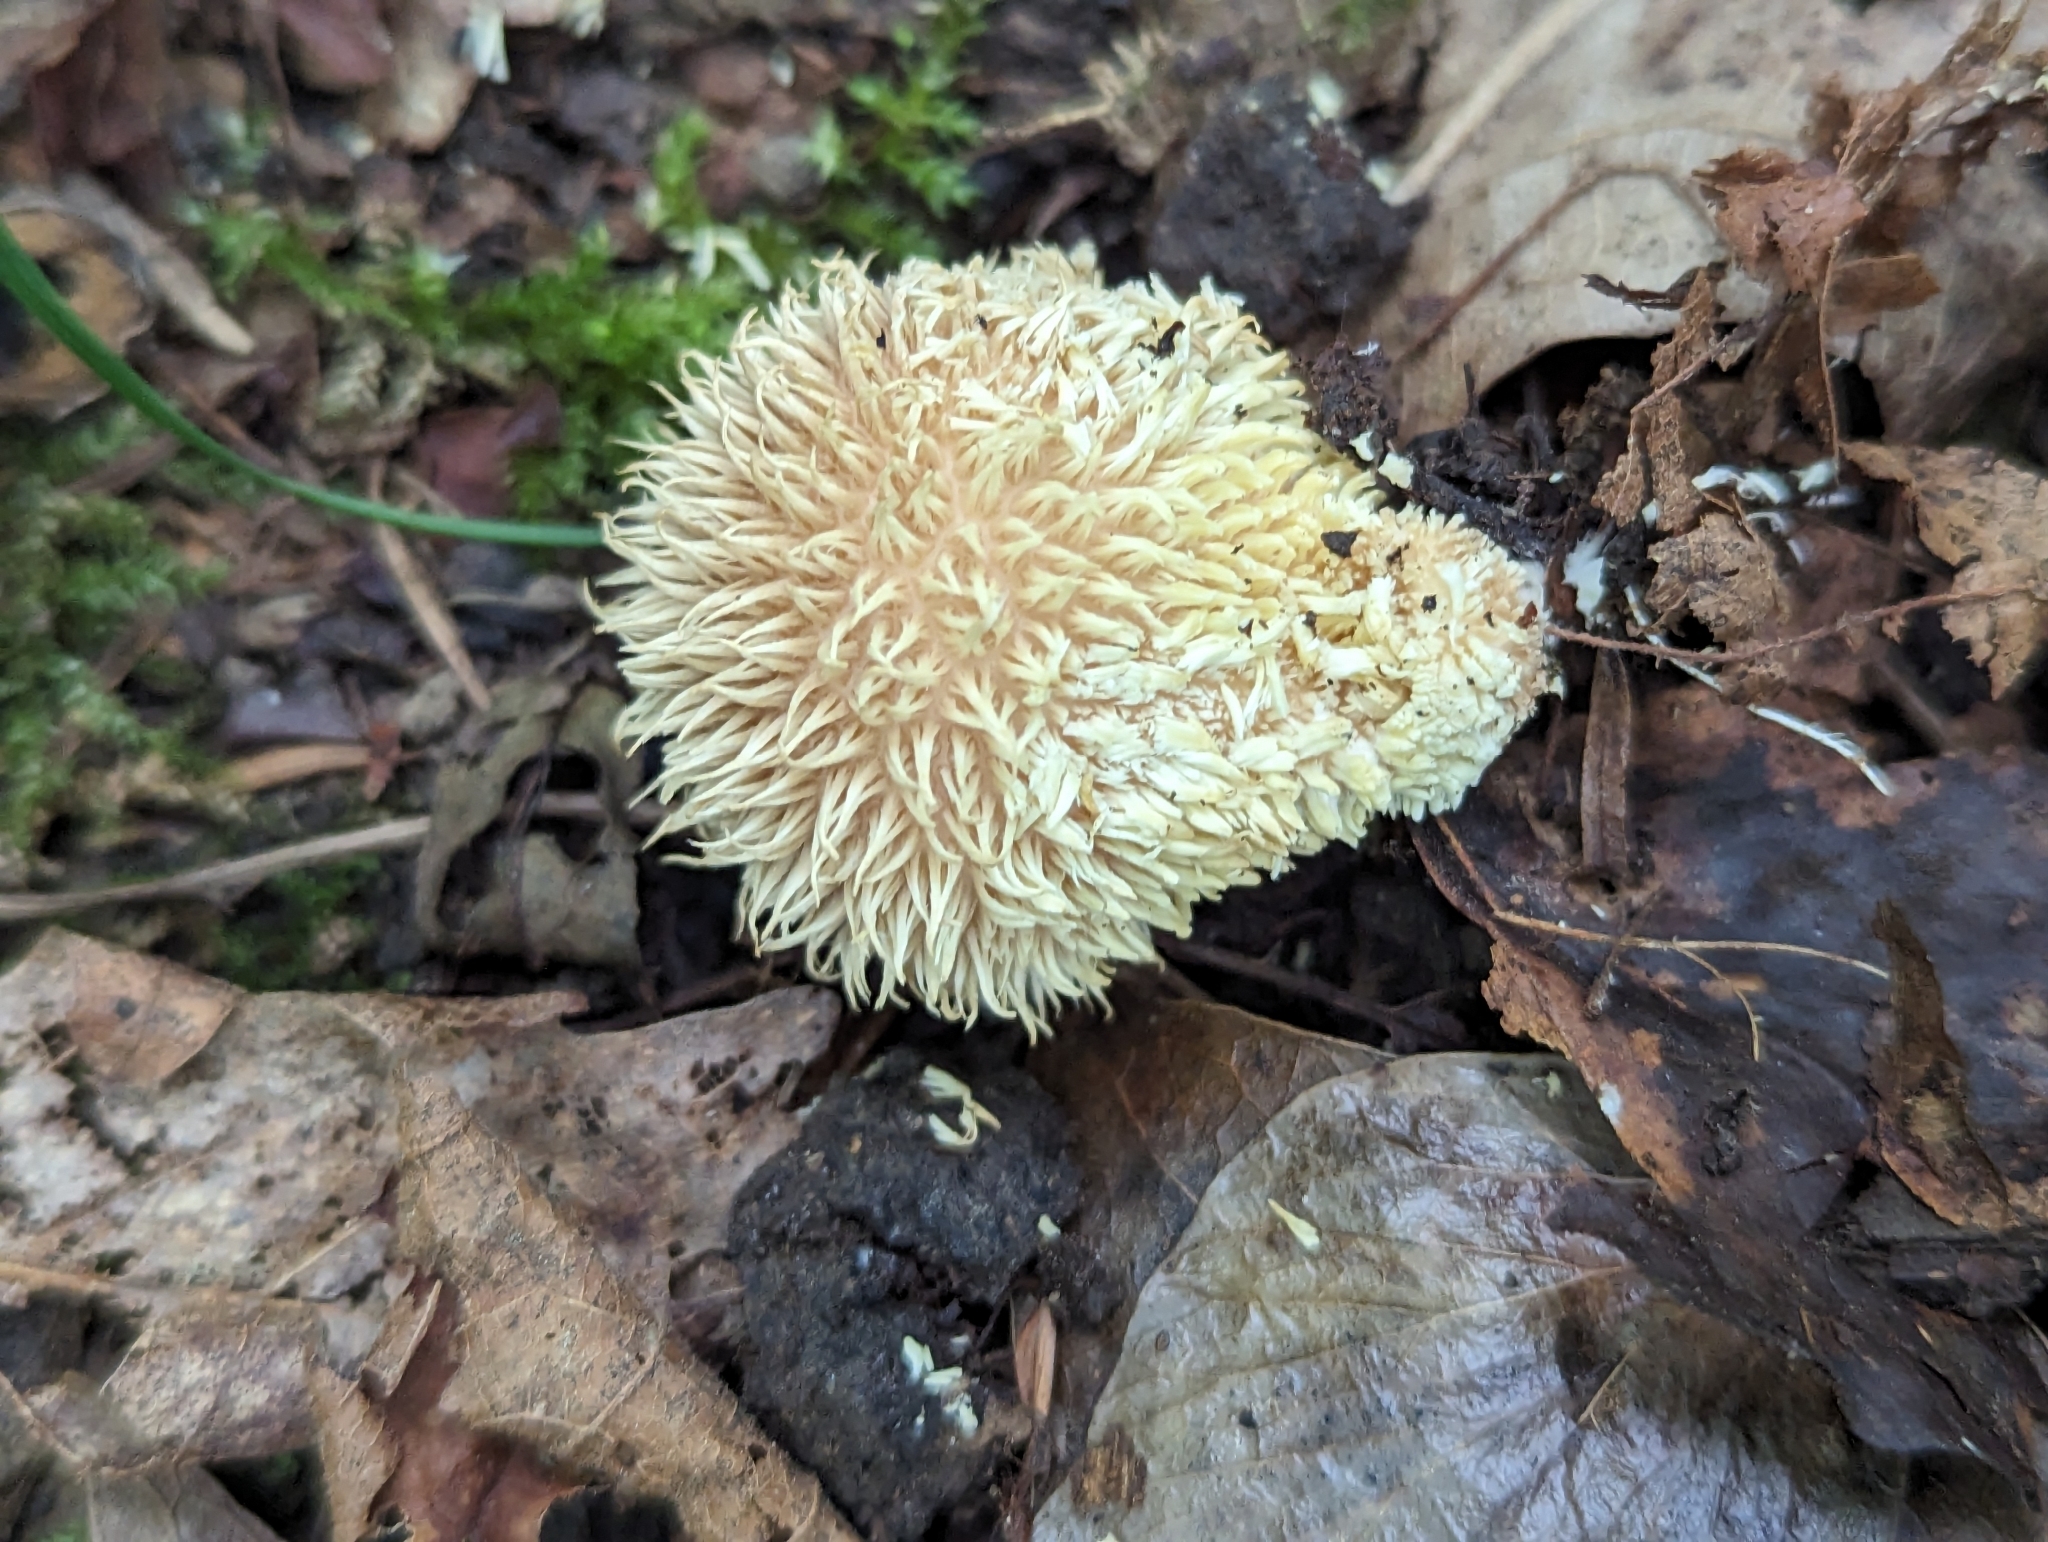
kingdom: Fungi
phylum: Basidiomycota
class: Agaricomycetes
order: Agaricales
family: Lycoperdaceae
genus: Lycoperdon
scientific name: Lycoperdon echinatum
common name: Hedgehog puffball
